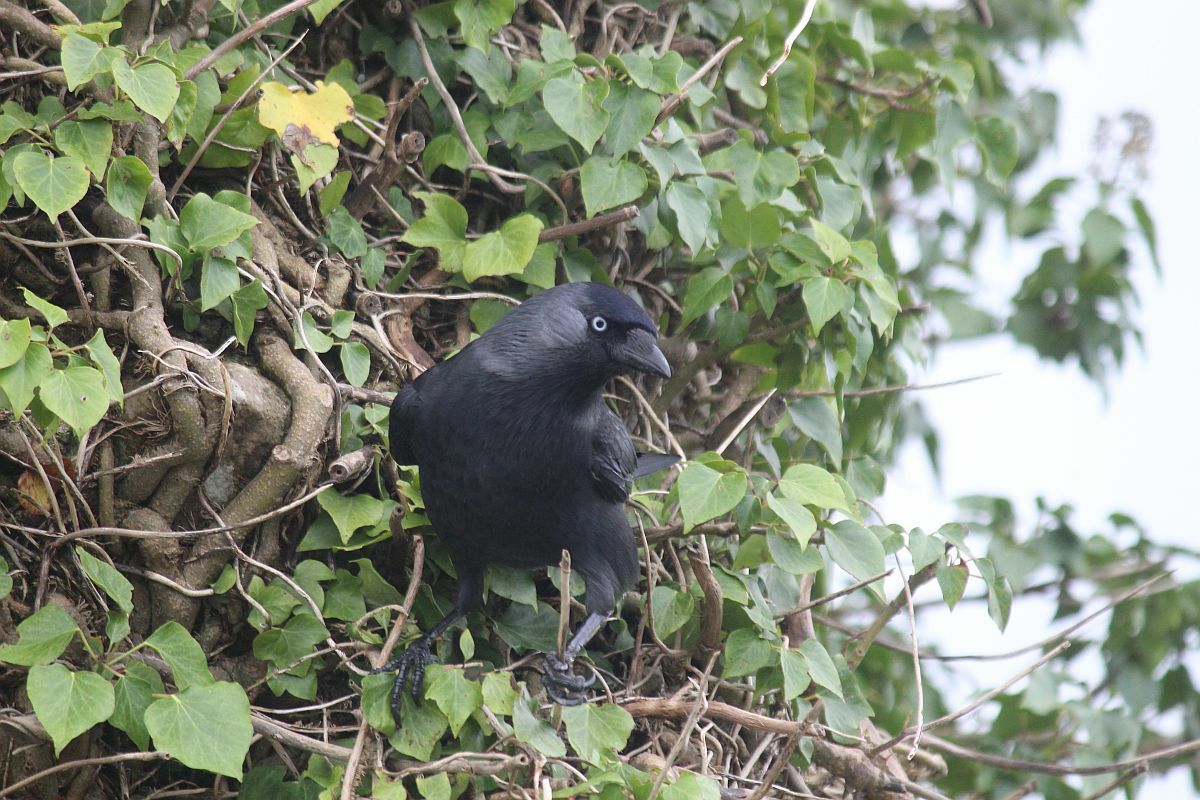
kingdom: Animalia
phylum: Chordata
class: Aves
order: Passeriformes
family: Corvidae
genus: Coloeus
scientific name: Coloeus monedula
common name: Western jackdaw
